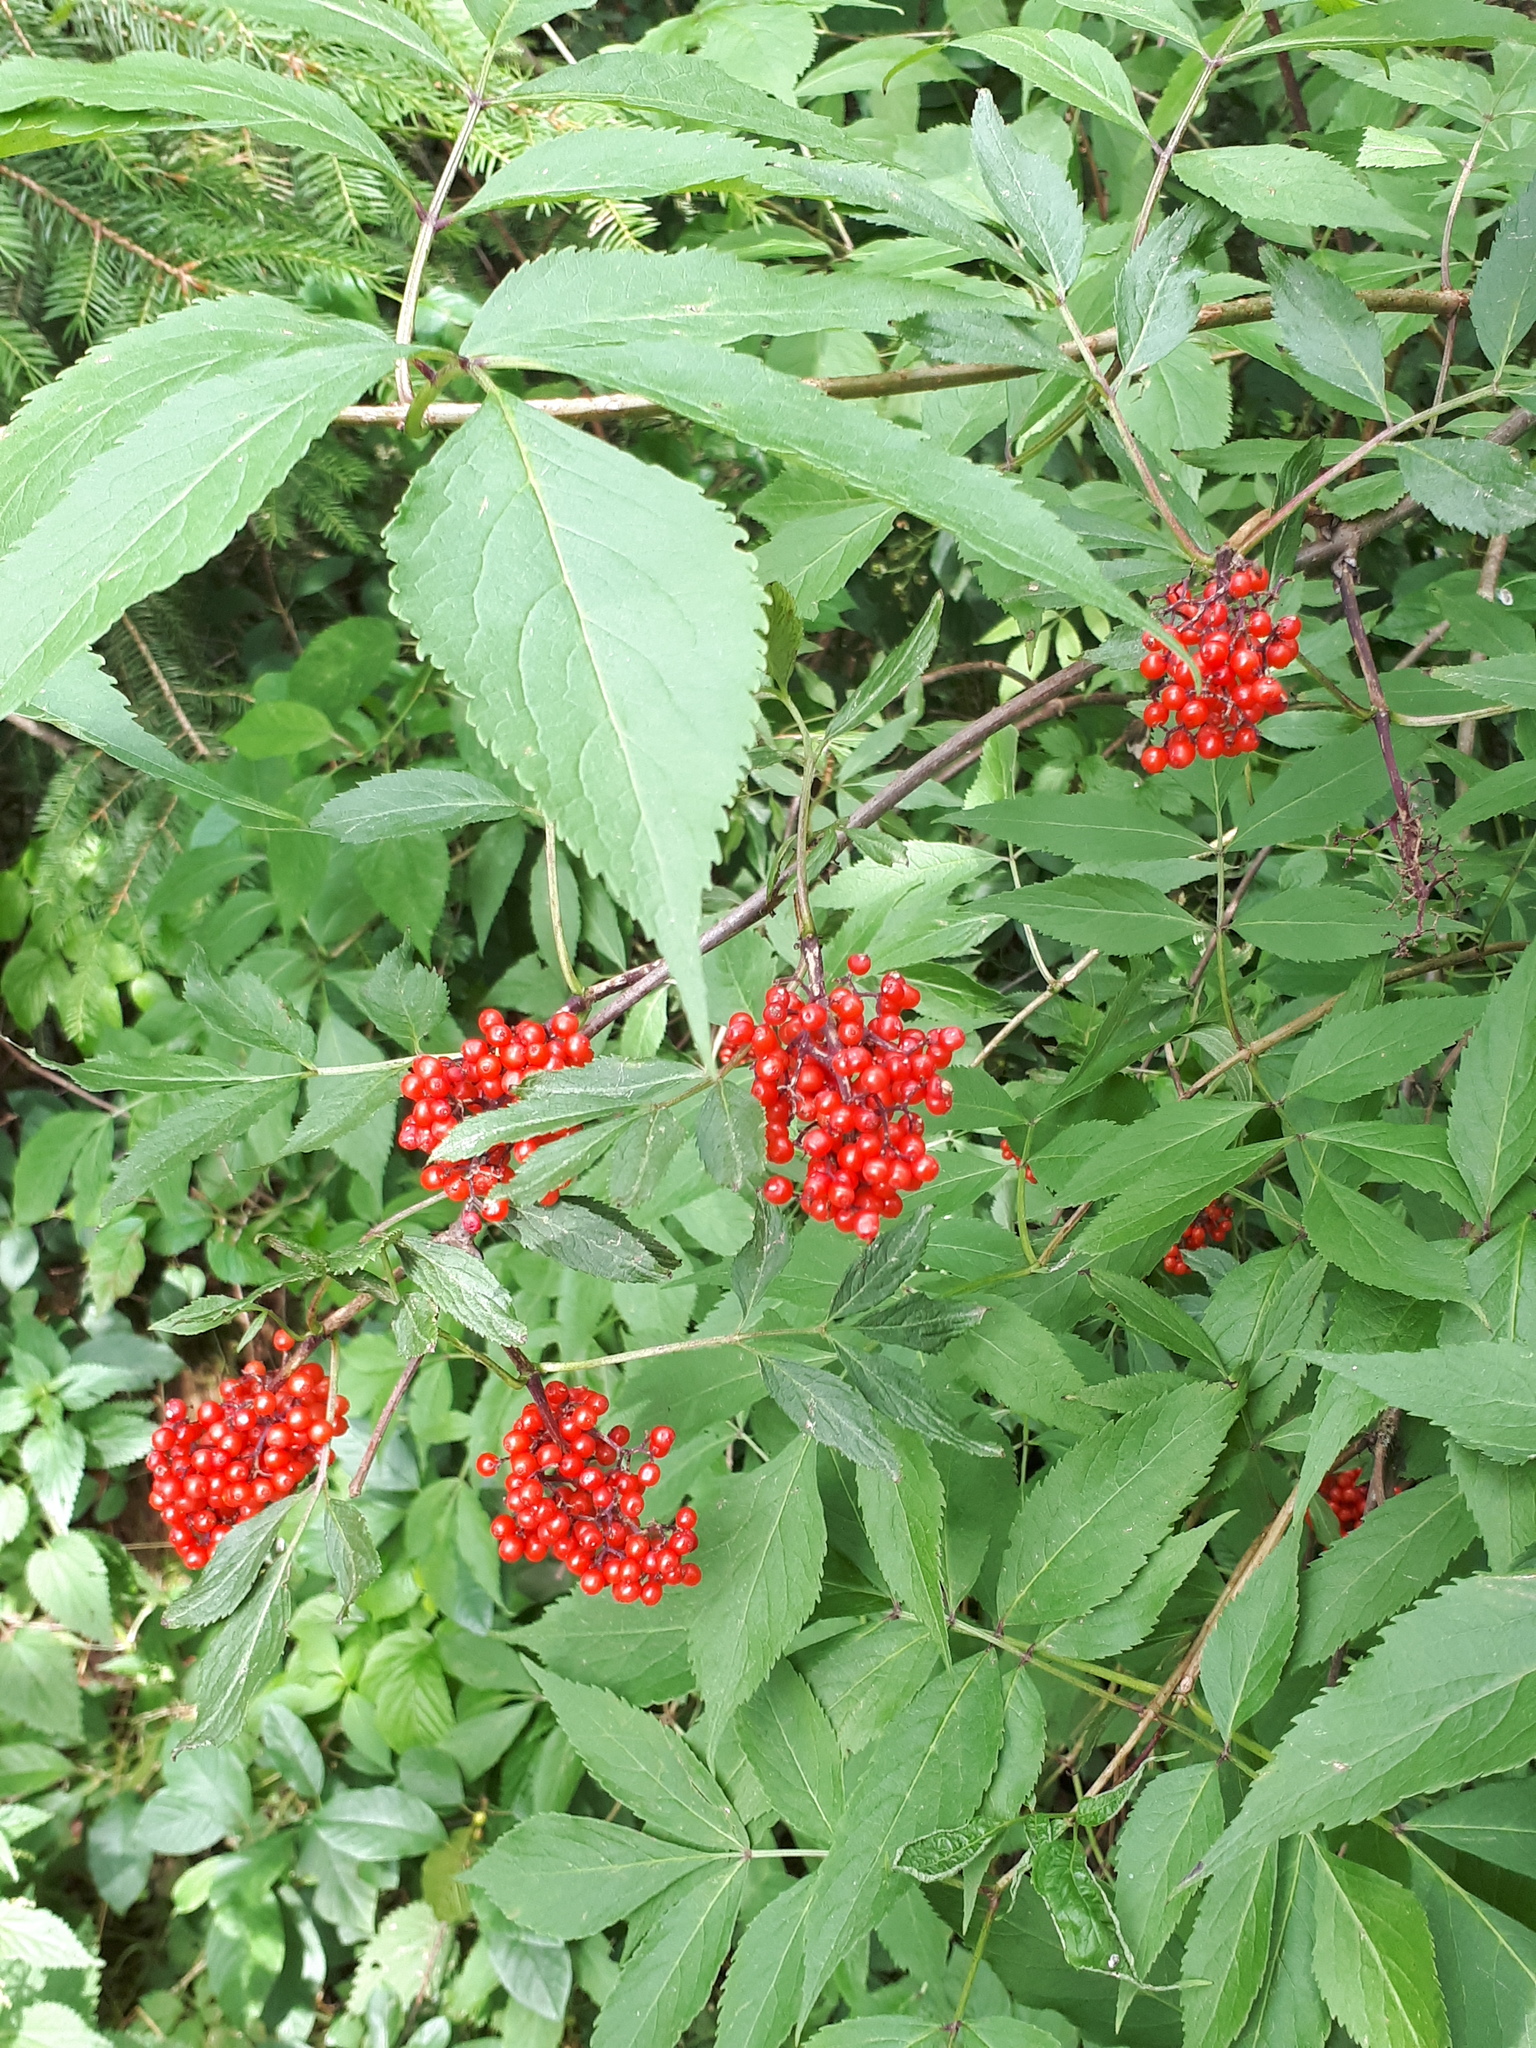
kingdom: Plantae
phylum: Tracheophyta
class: Magnoliopsida
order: Dipsacales
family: Viburnaceae
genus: Sambucus
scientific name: Sambucus racemosa
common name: Red-berried elder
